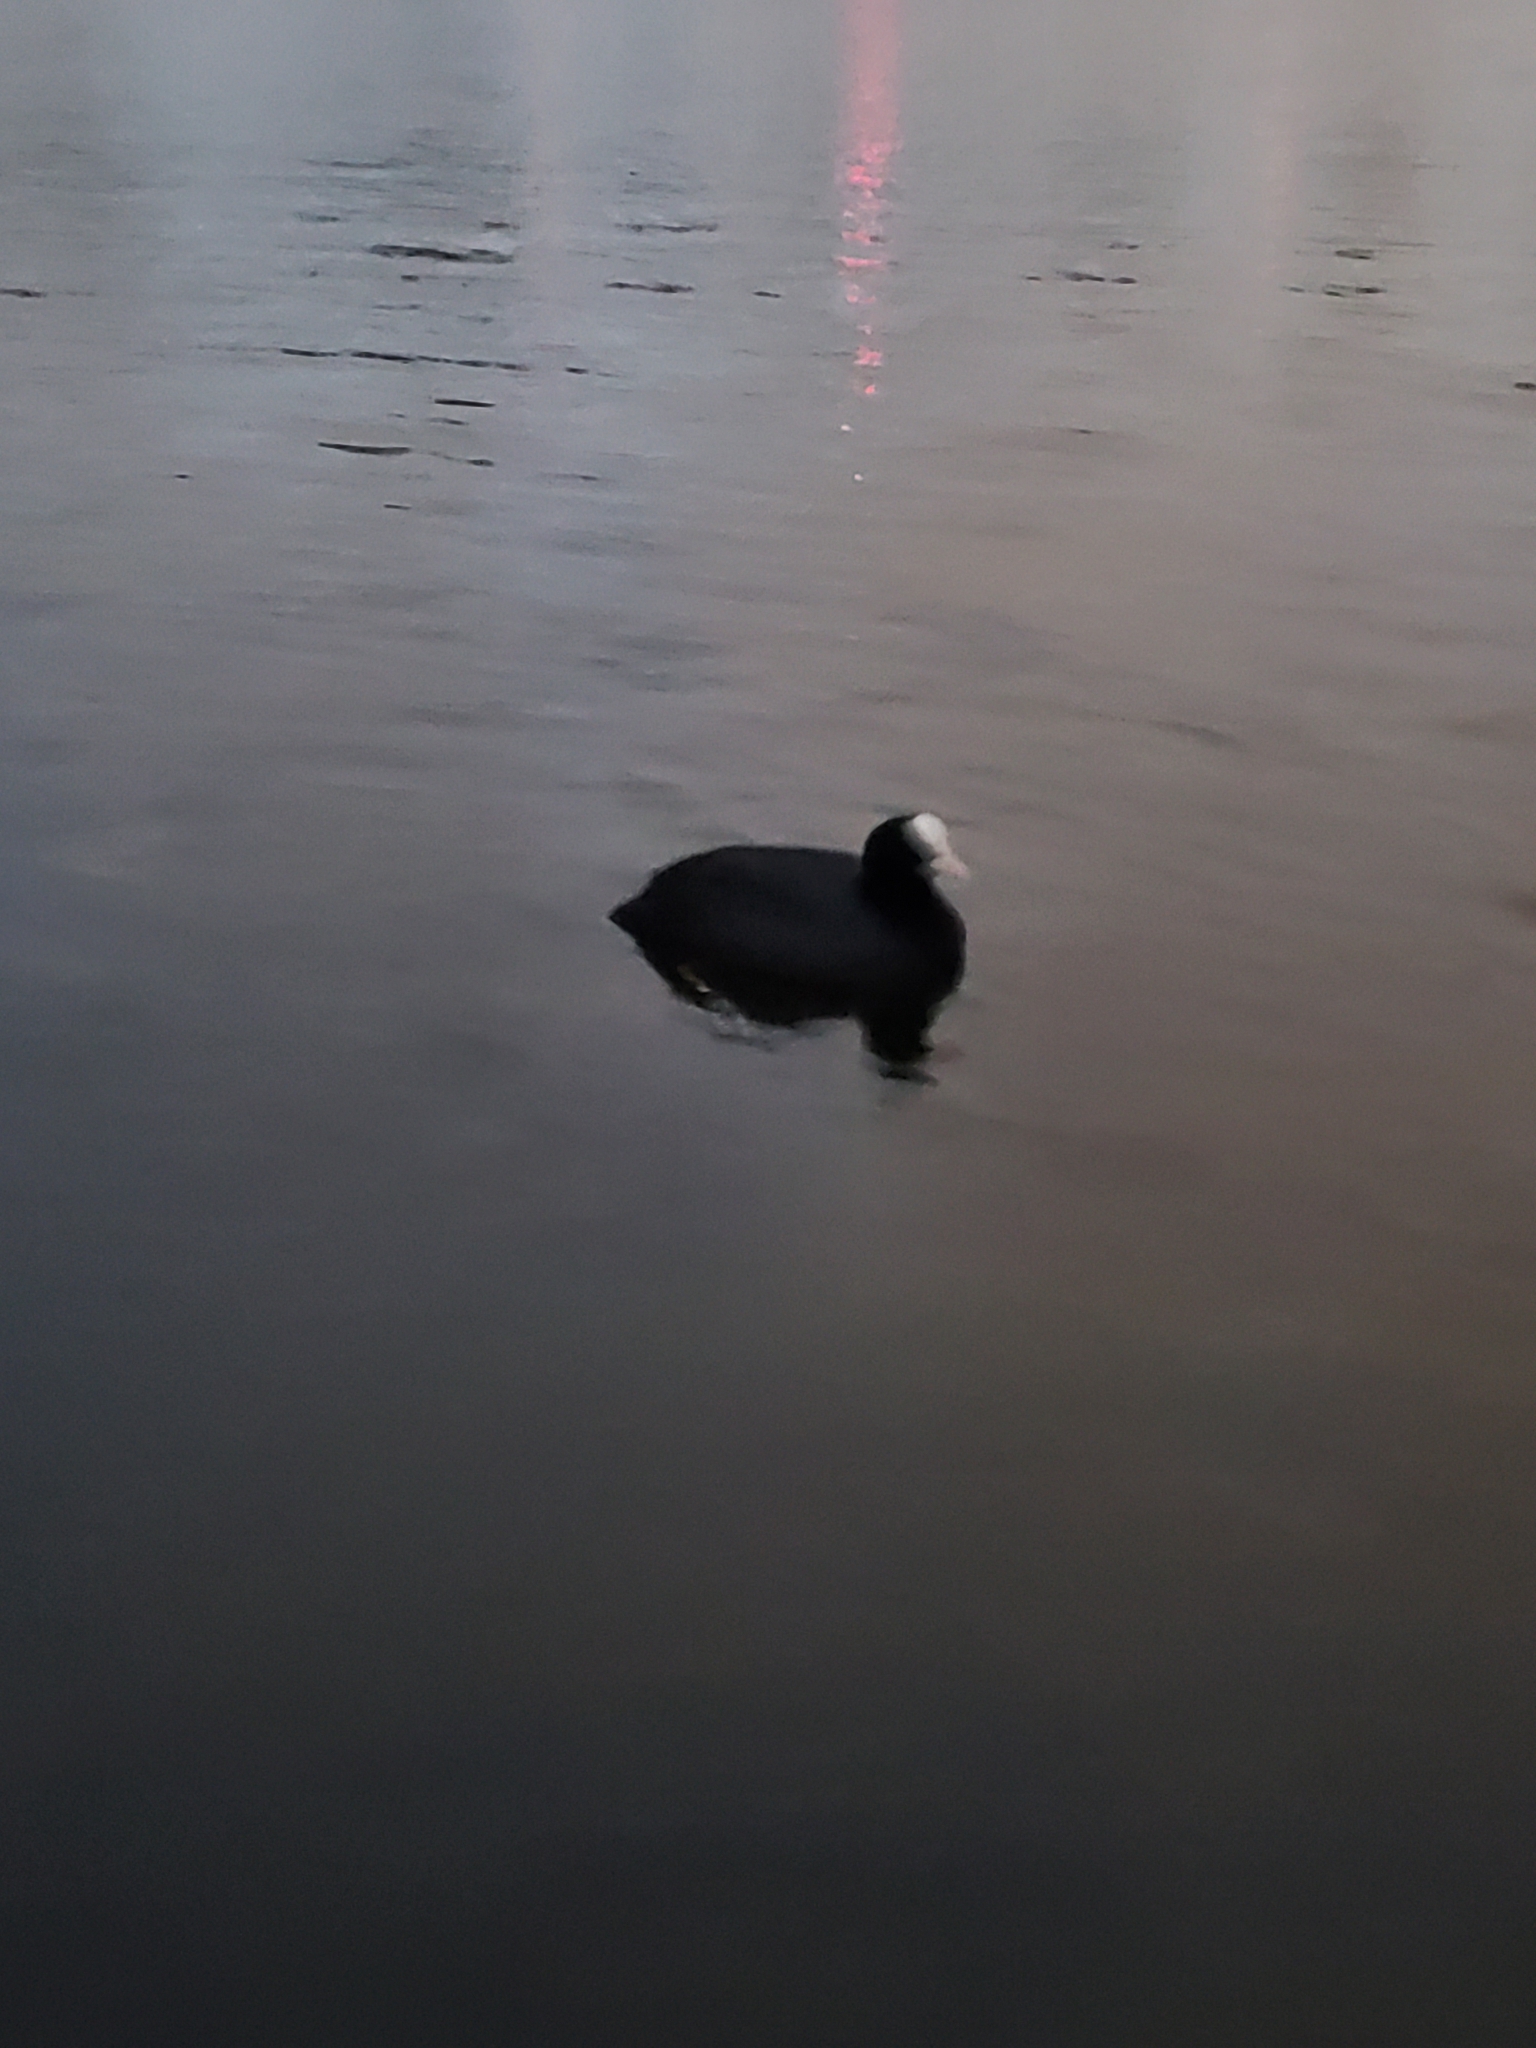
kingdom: Animalia
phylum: Chordata
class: Aves
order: Gruiformes
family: Rallidae
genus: Fulica
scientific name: Fulica atra
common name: Eurasian coot
